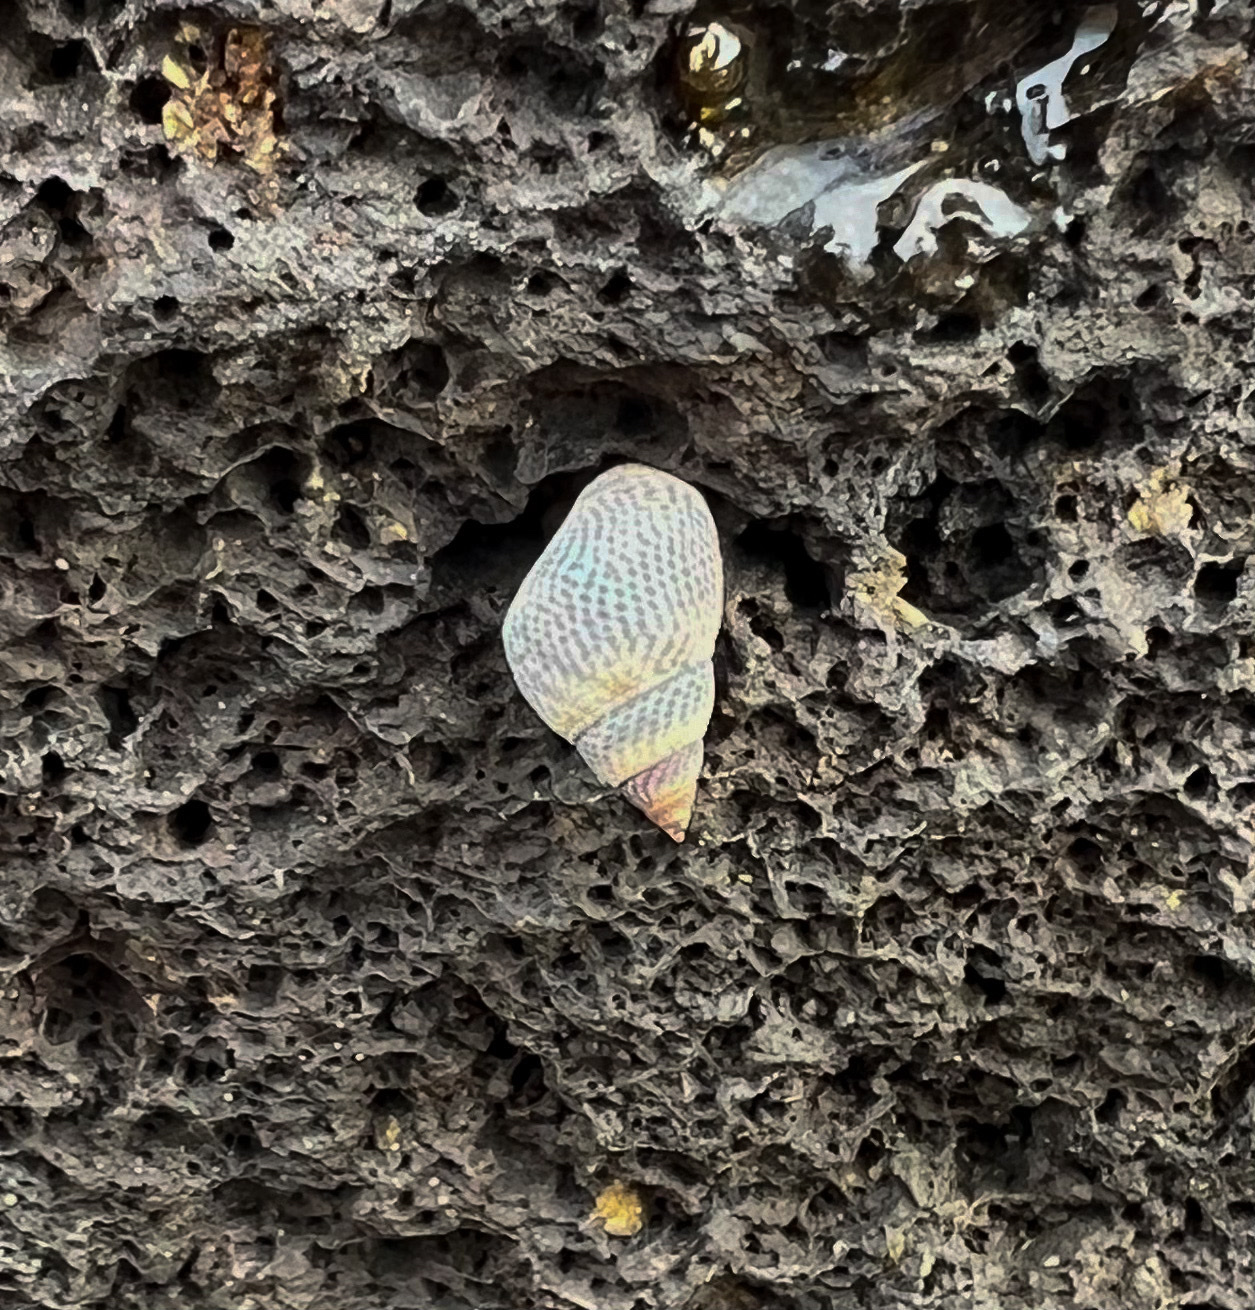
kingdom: Animalia
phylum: Mollusca
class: Gastropoda
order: Littorinimorpha
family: Littorinidae
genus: Littoraria
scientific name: Littoraria pintado
